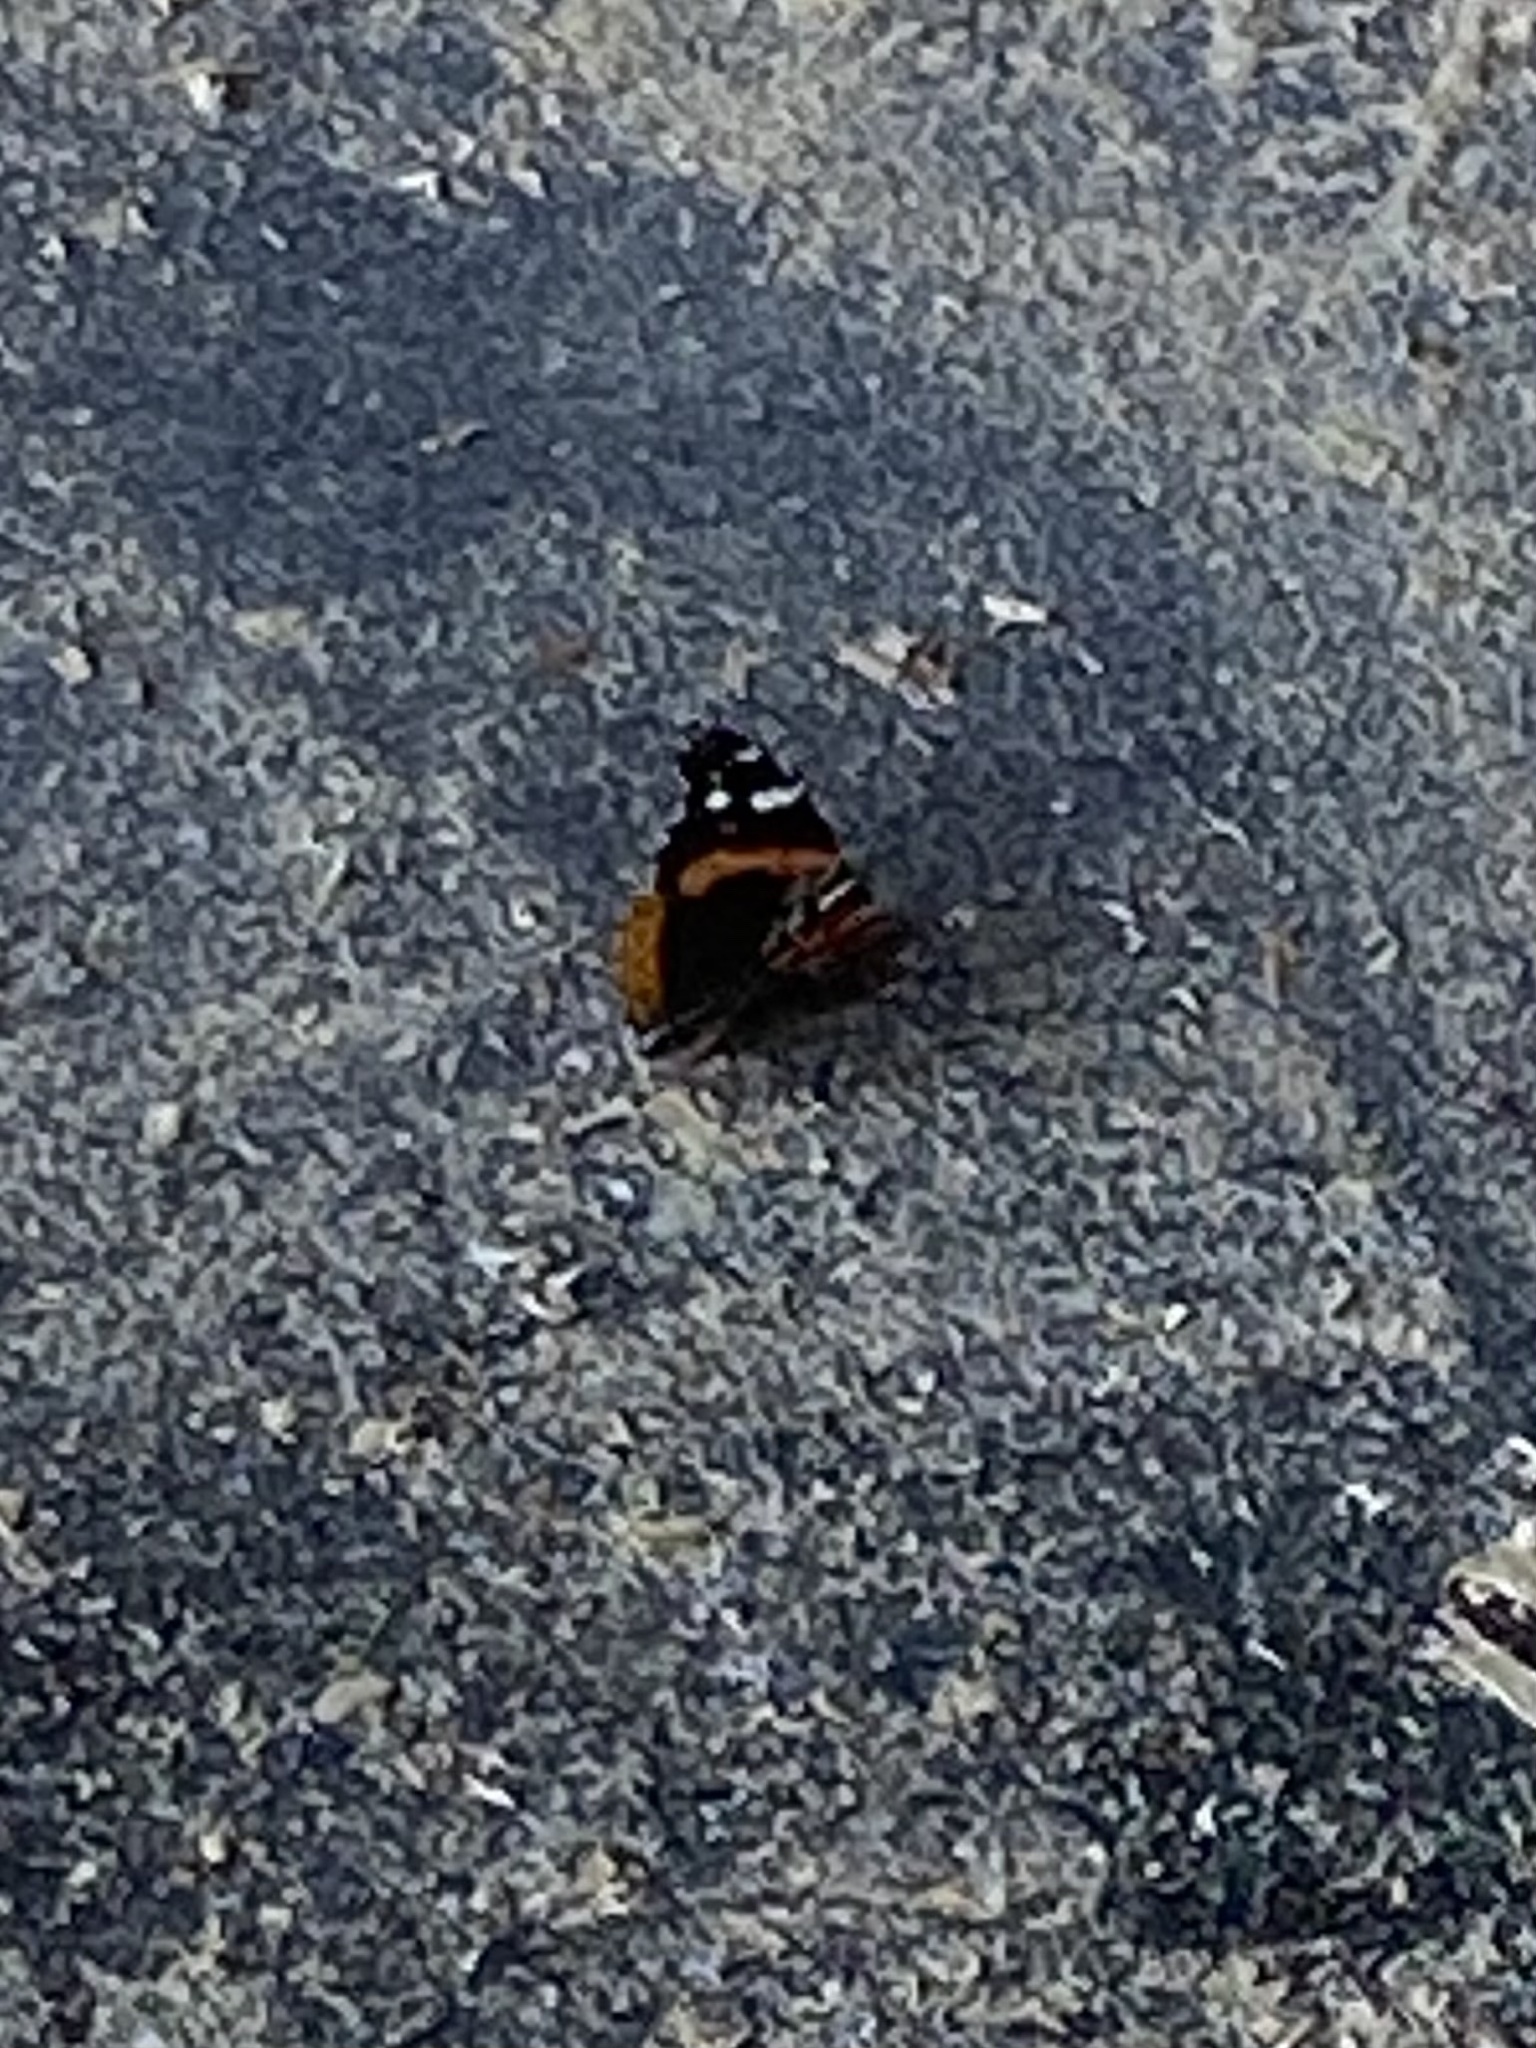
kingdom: Animalia
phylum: Arthropoda
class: Insecta
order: Lepidoptera
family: Nymphalidae
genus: Vanessa
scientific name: Vanessa atalanta
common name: Red admiral
